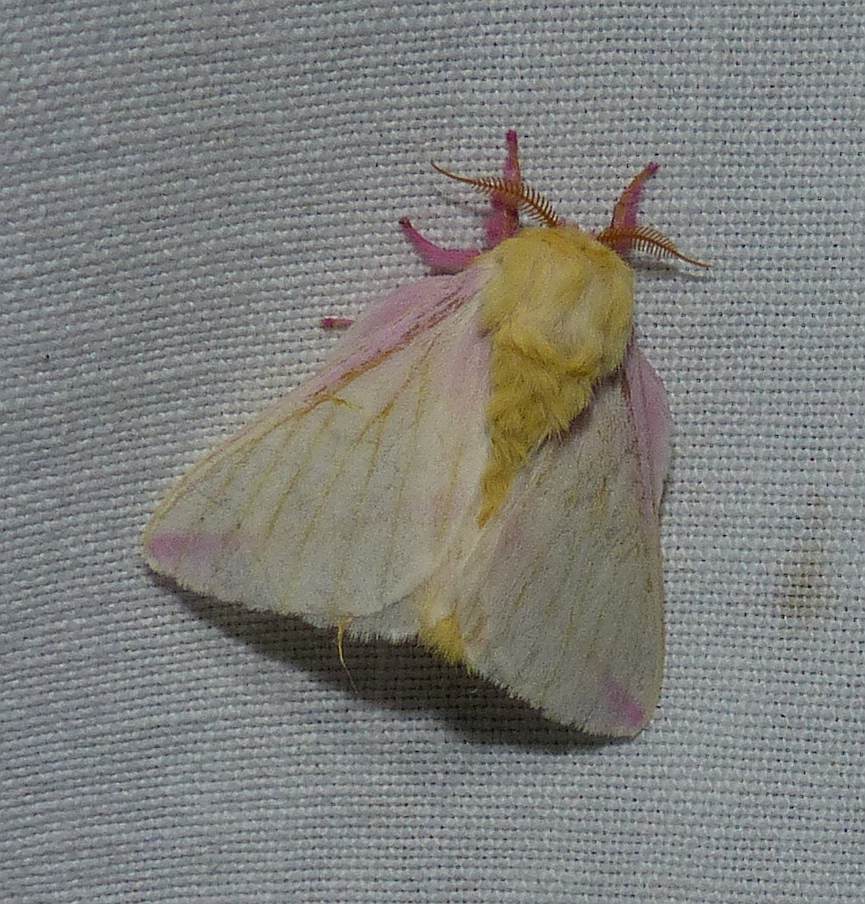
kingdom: Animalia
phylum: Arthropoda
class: Insecta
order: Lepidoptera
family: Saturniidae
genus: Dryocampa
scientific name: Dryocampa rubicunda
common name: Rosy maple moth
